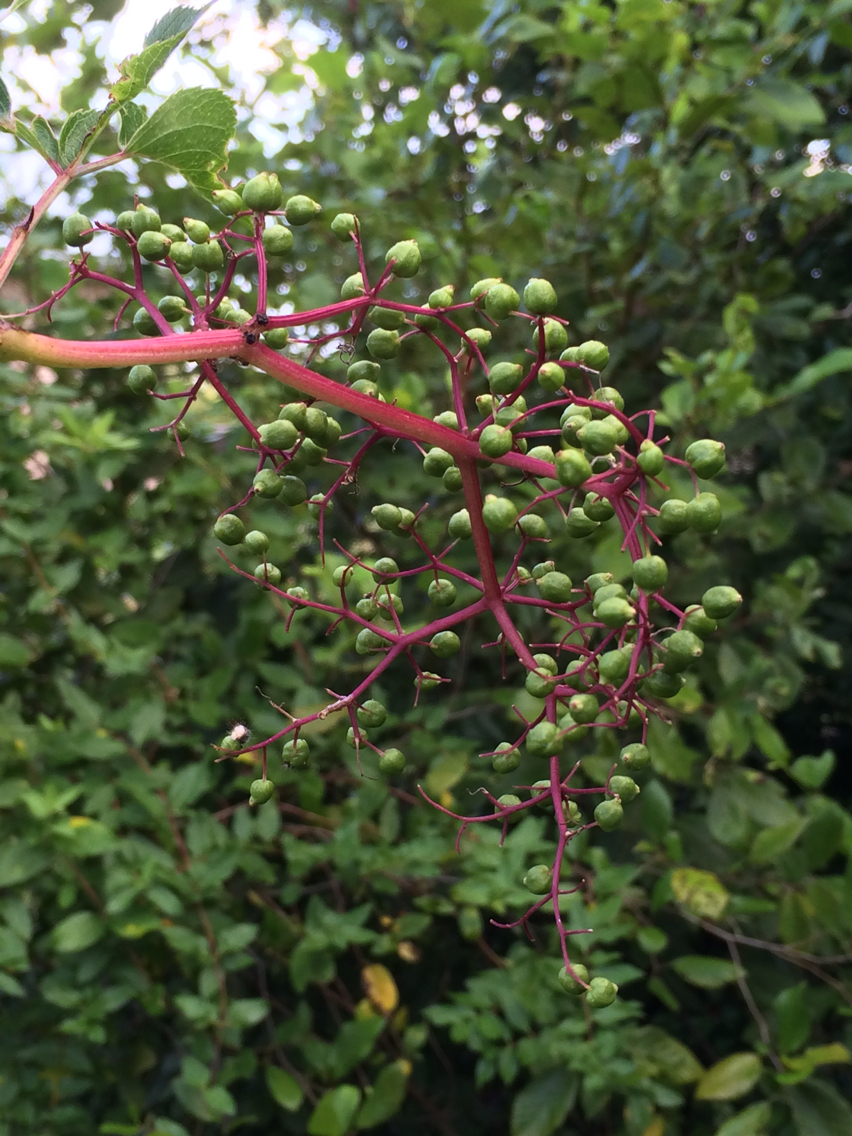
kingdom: Plantae
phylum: Tracheophyta
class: Magnoliopsida
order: Dipsacales
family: Viburnaceae
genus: Sambucus
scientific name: Sambucus canadensis
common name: American elder
